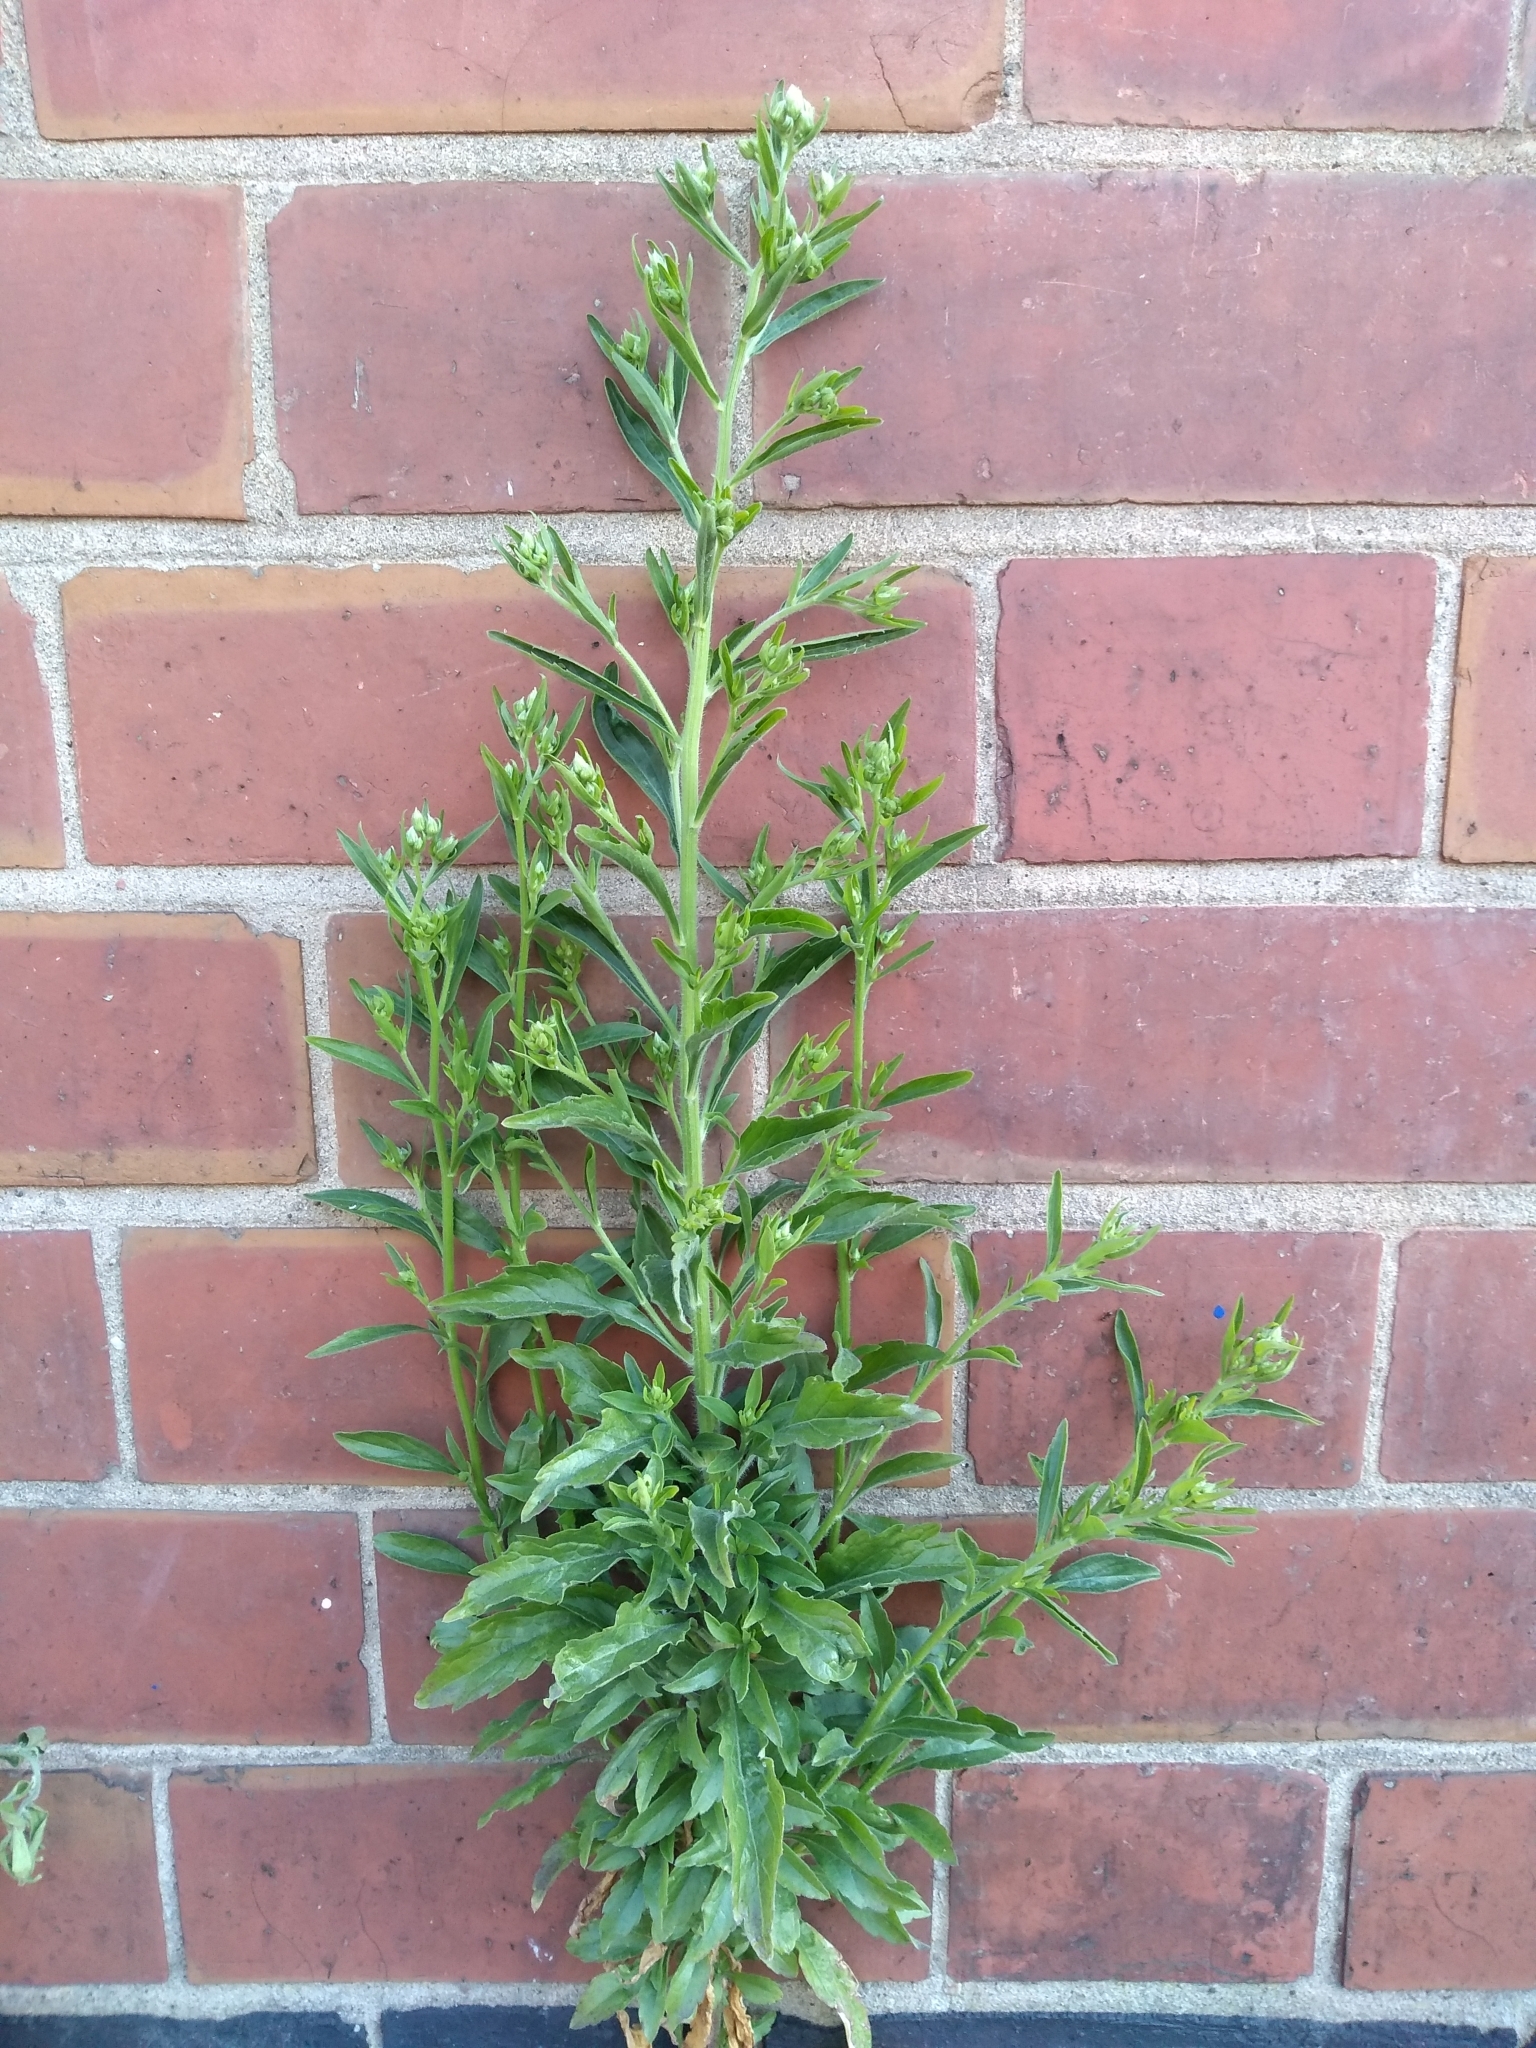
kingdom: Plantae
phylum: Tracheophyta
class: Magnoliopsida
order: Asterales
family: Asteraceae
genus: Erigeron
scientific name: Erigeron canadensis
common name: Canadian fleabane
